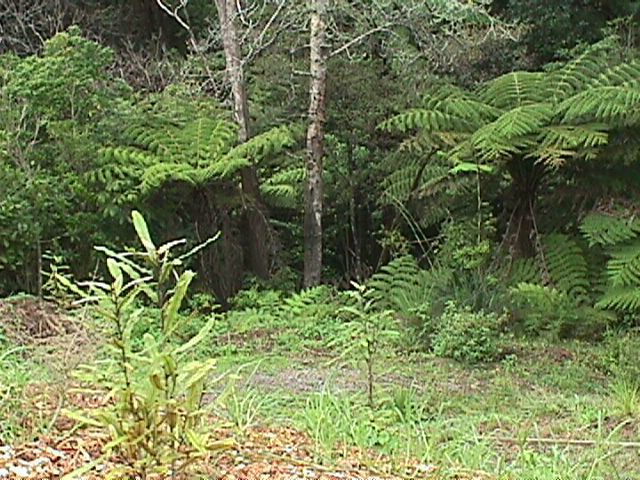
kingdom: Plantae
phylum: Tracheophyta
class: Pinopsida
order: Pinales
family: Phyllocladaceae
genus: Phyllocladus
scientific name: Phyllocladus trichomanoides
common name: Celery pine
